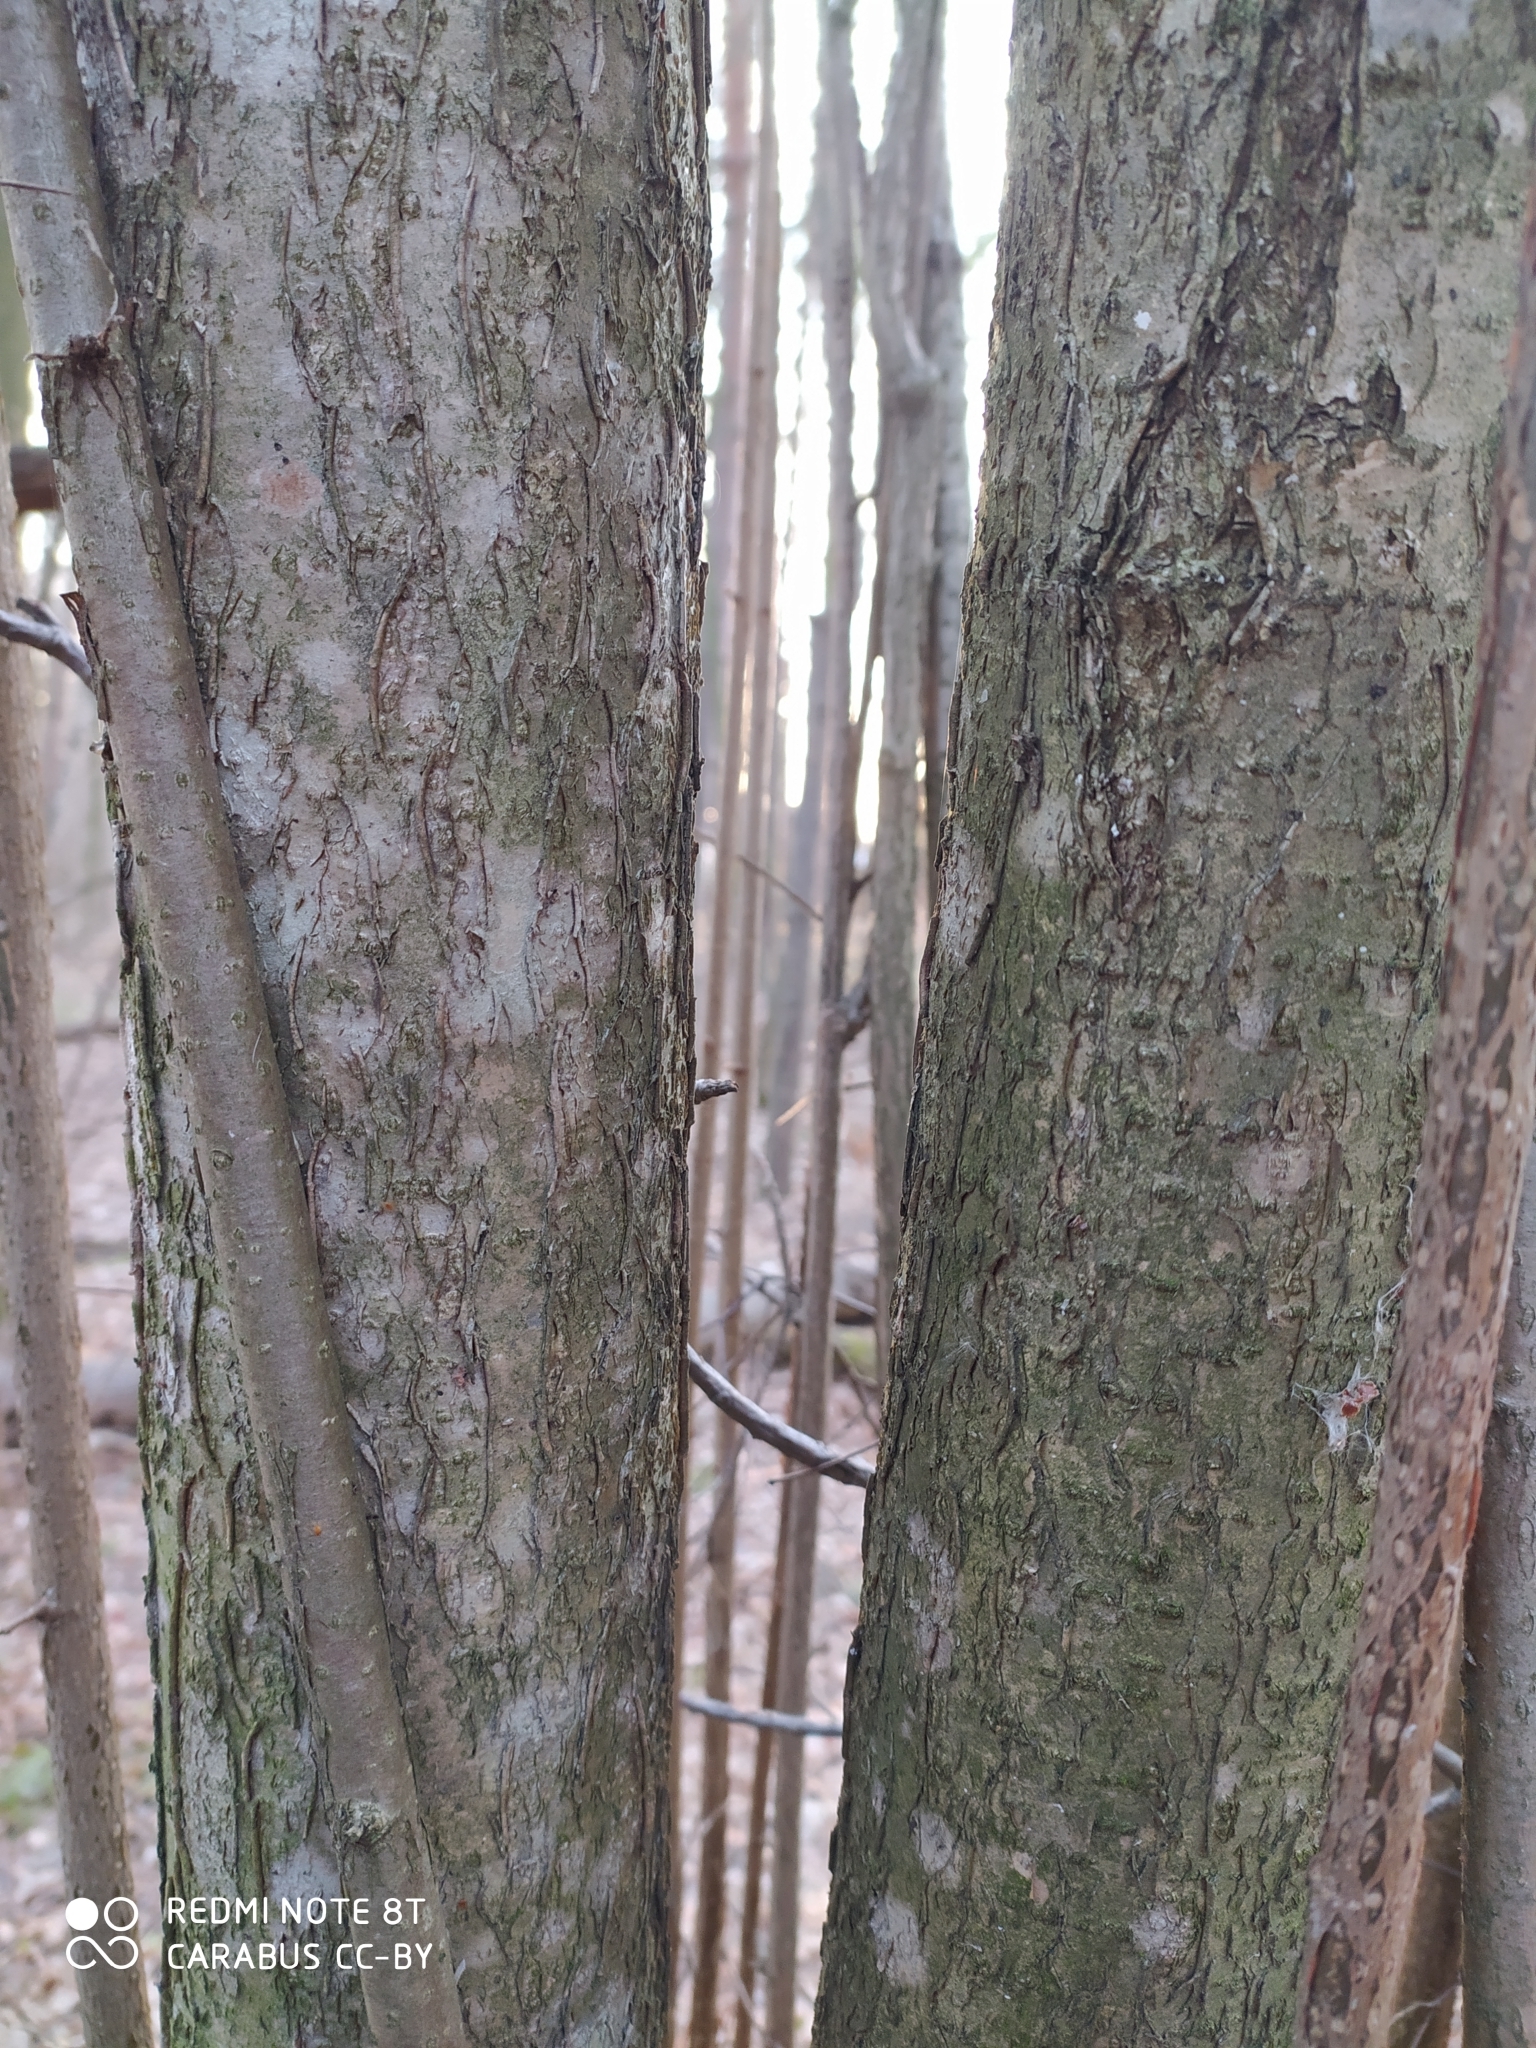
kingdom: Plantae
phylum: Tracheophyta
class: Magnoliopsida
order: Fagales
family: Betulaceae
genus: Corylus
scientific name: Corylus avellana
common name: European hazel
